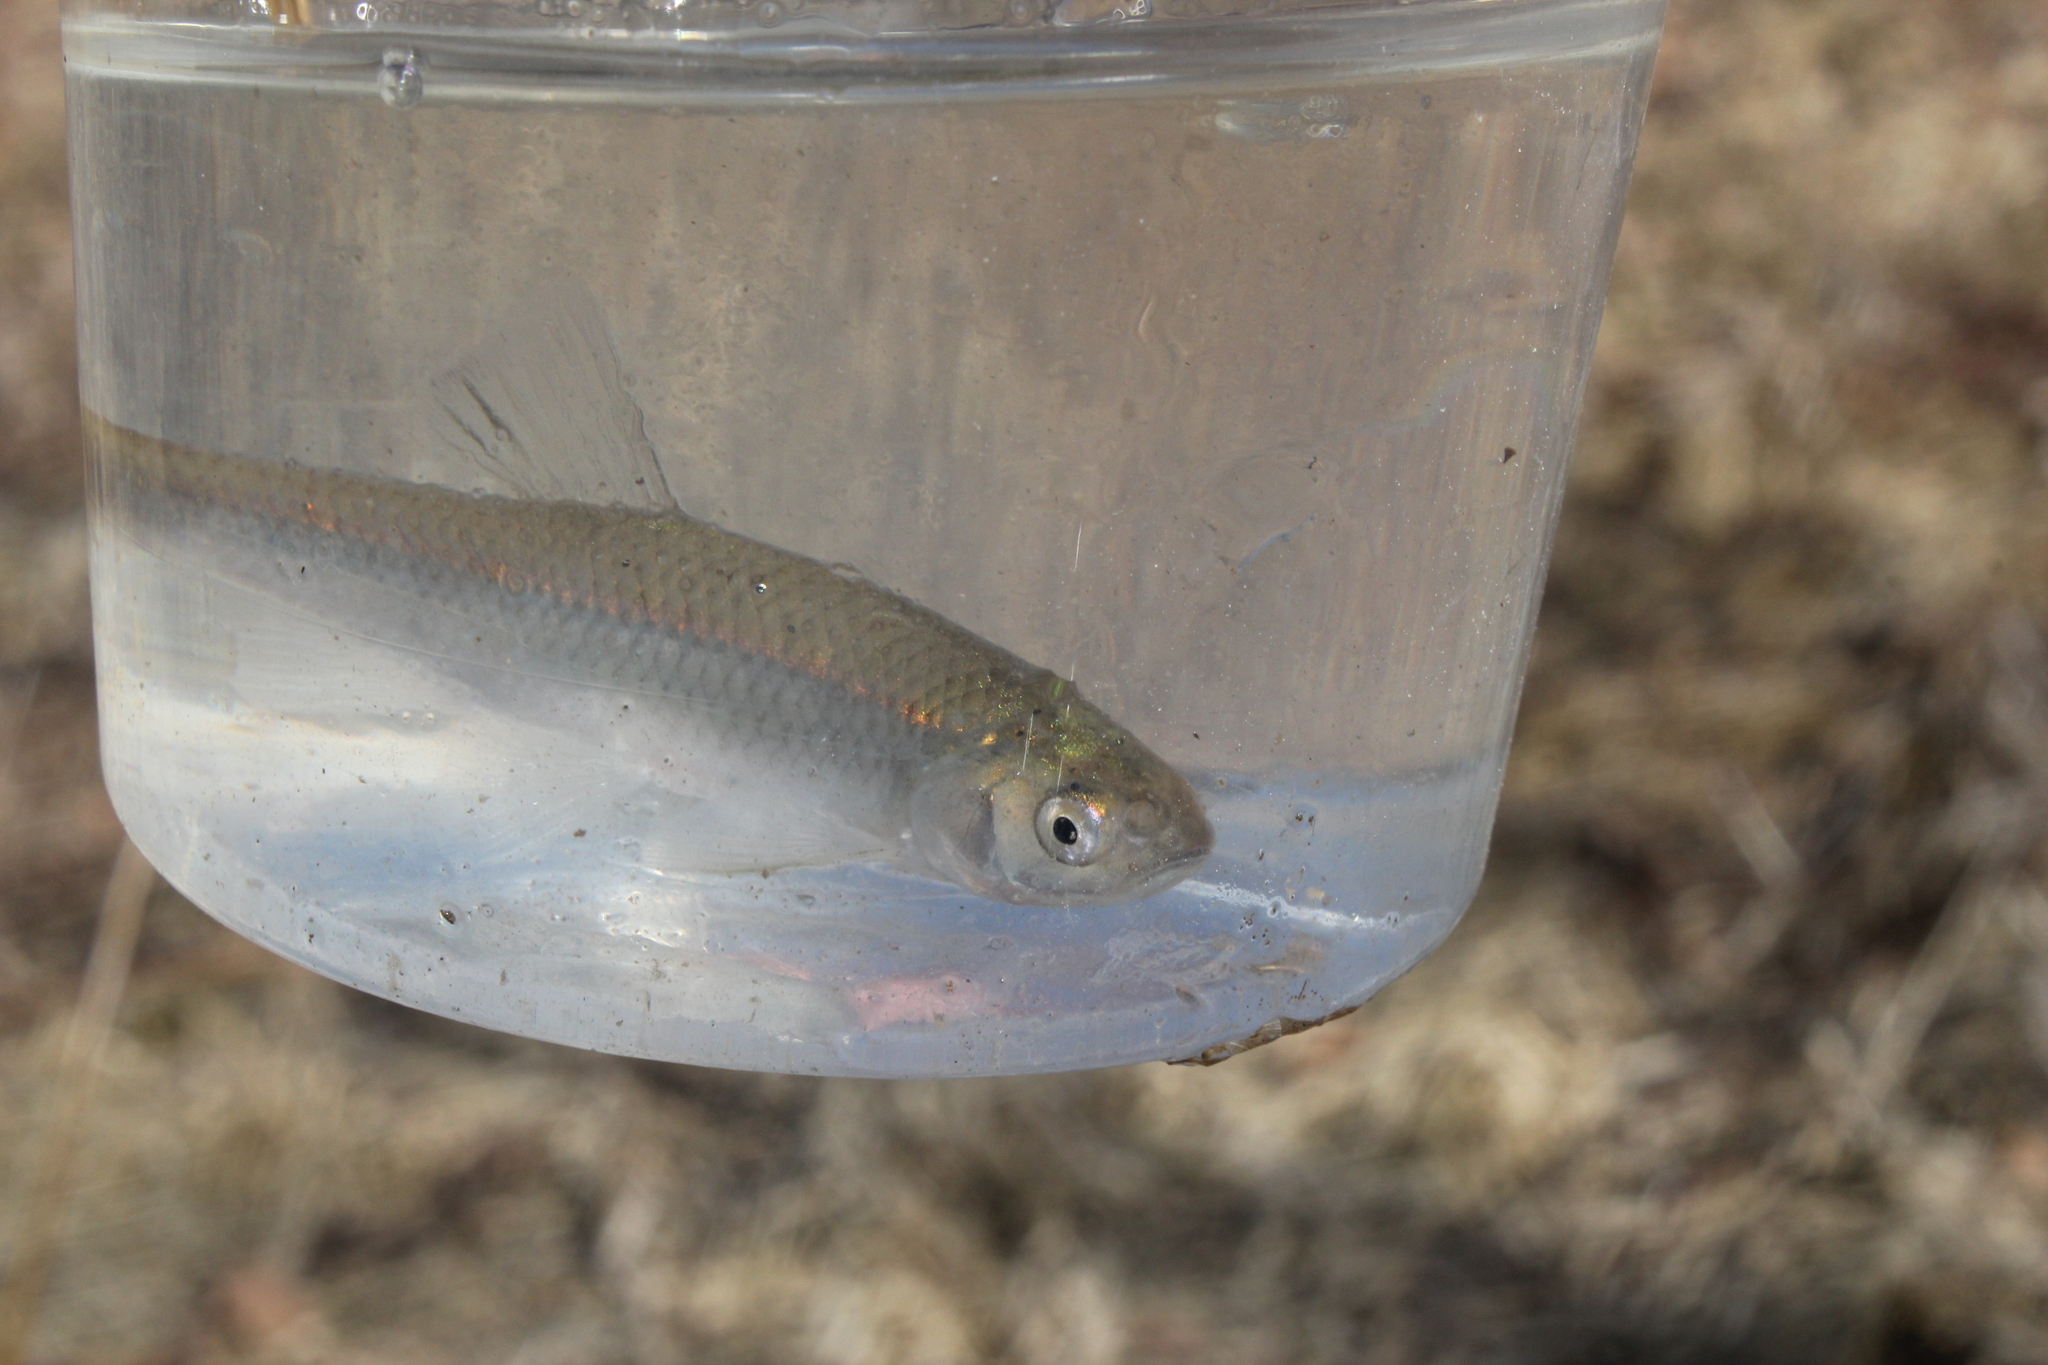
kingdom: Animalia
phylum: Chordata
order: Cypriniformes
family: Cyprinidae
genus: Cyprinella
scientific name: Cyprinella spiloptera
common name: Spotfin shiner
